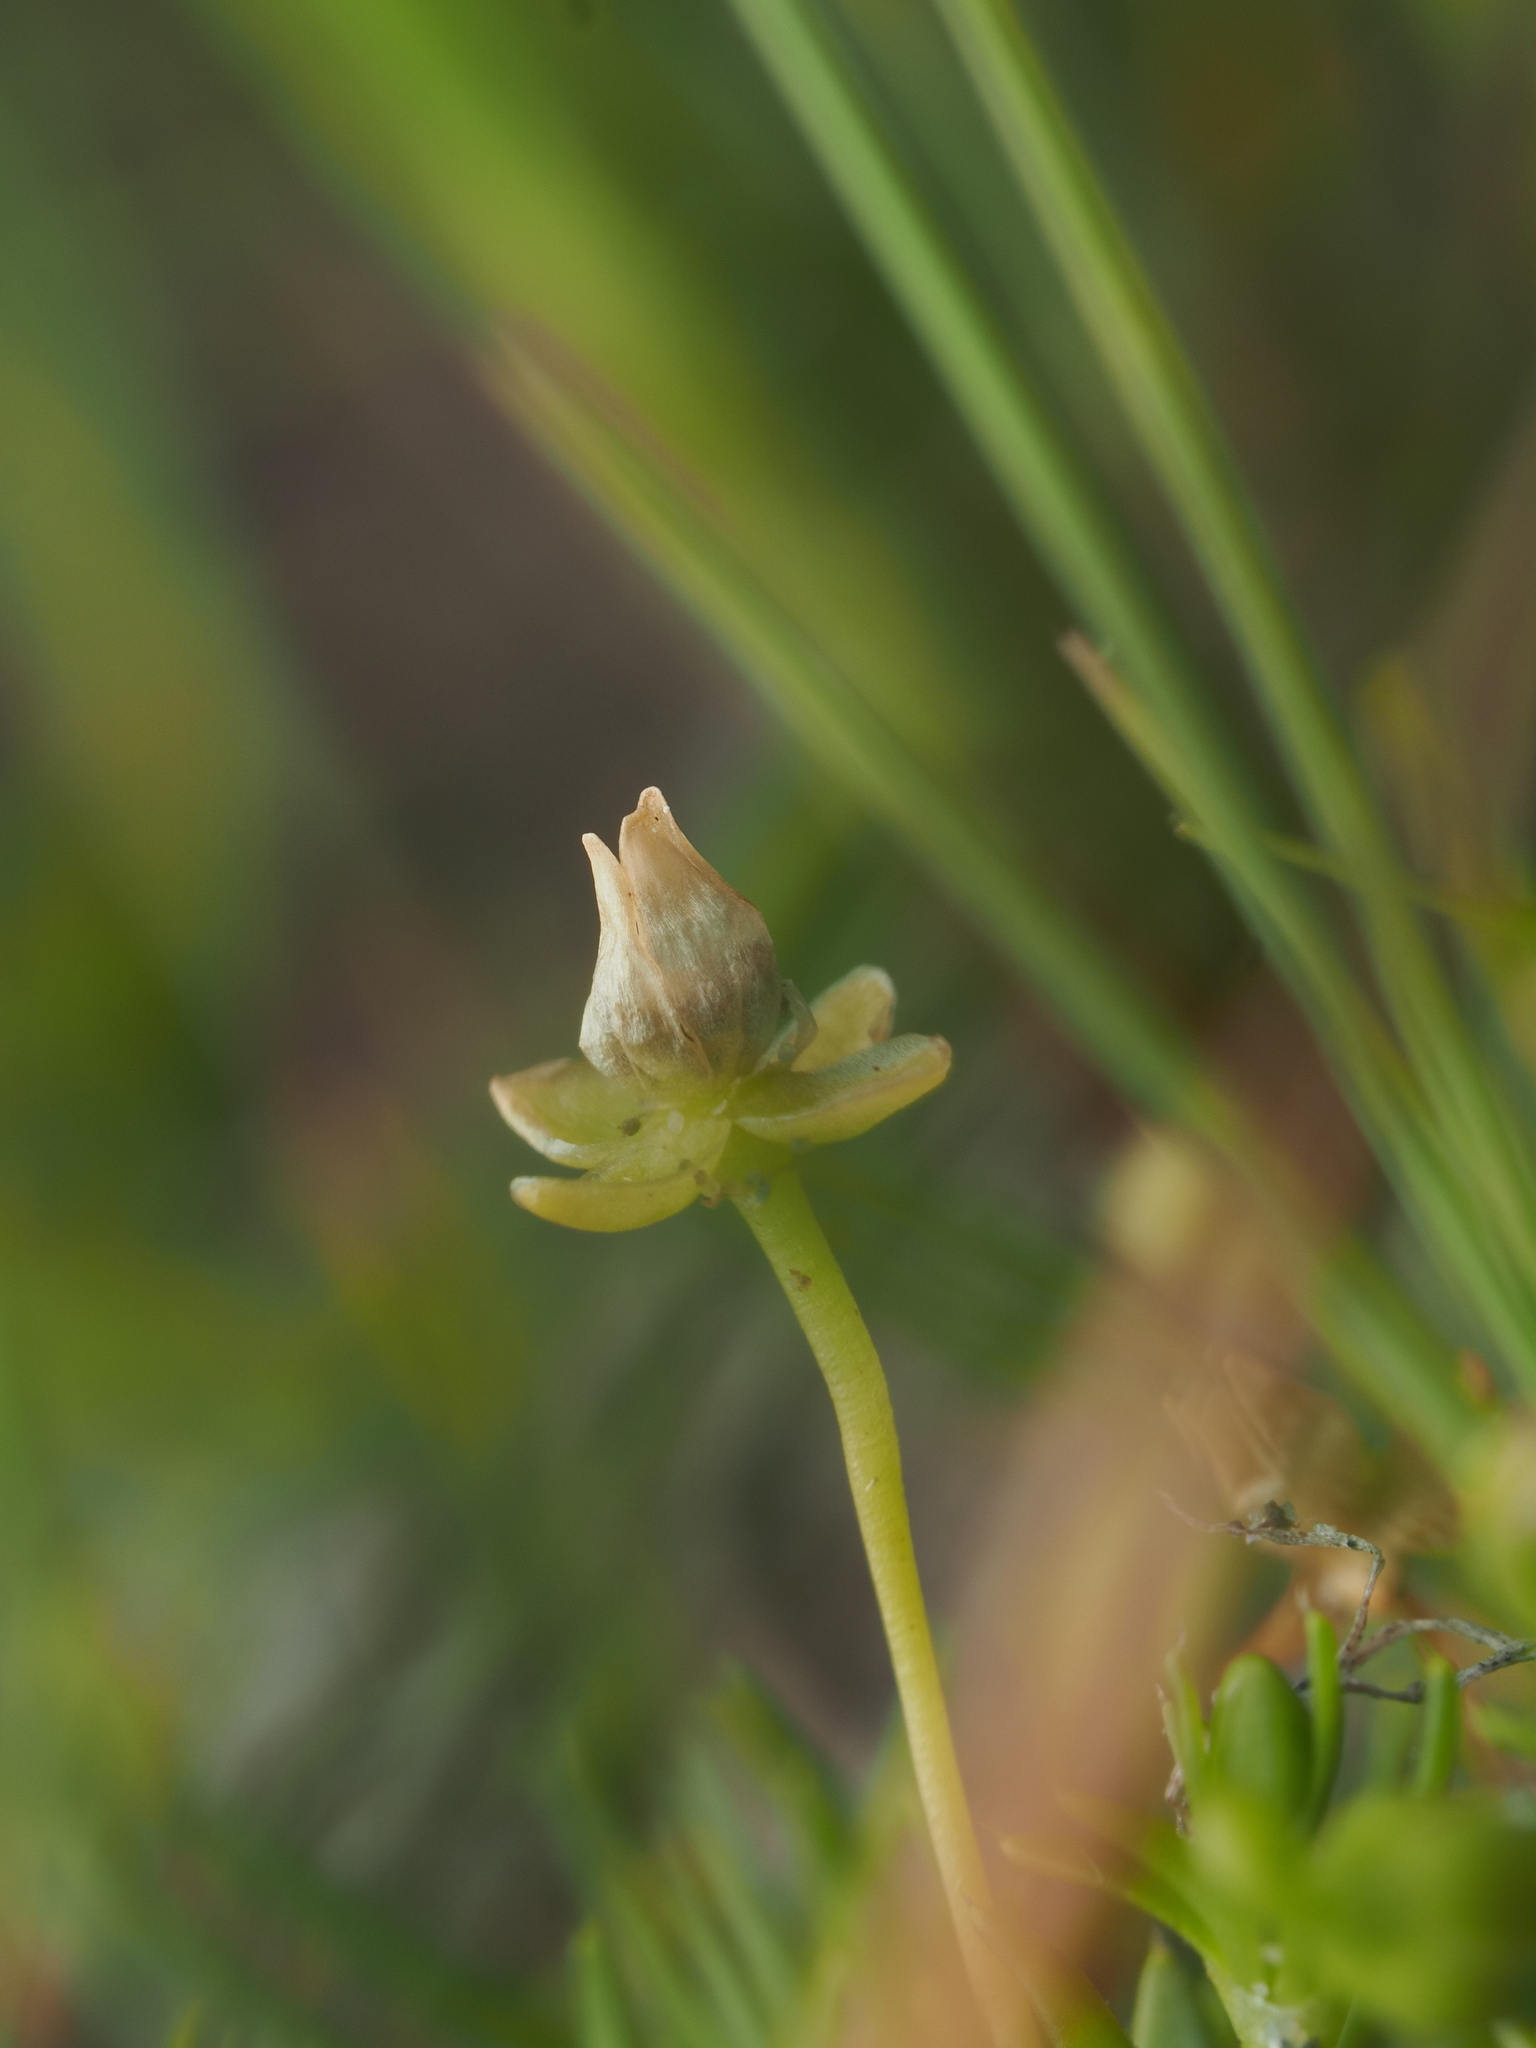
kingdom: Plantae
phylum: Tracheophyta
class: Magnoliopsida
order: Caryophyllales
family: Caryophyllaceae
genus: Sagina
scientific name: Sagina procumbens
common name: Procumbent pearlwort
